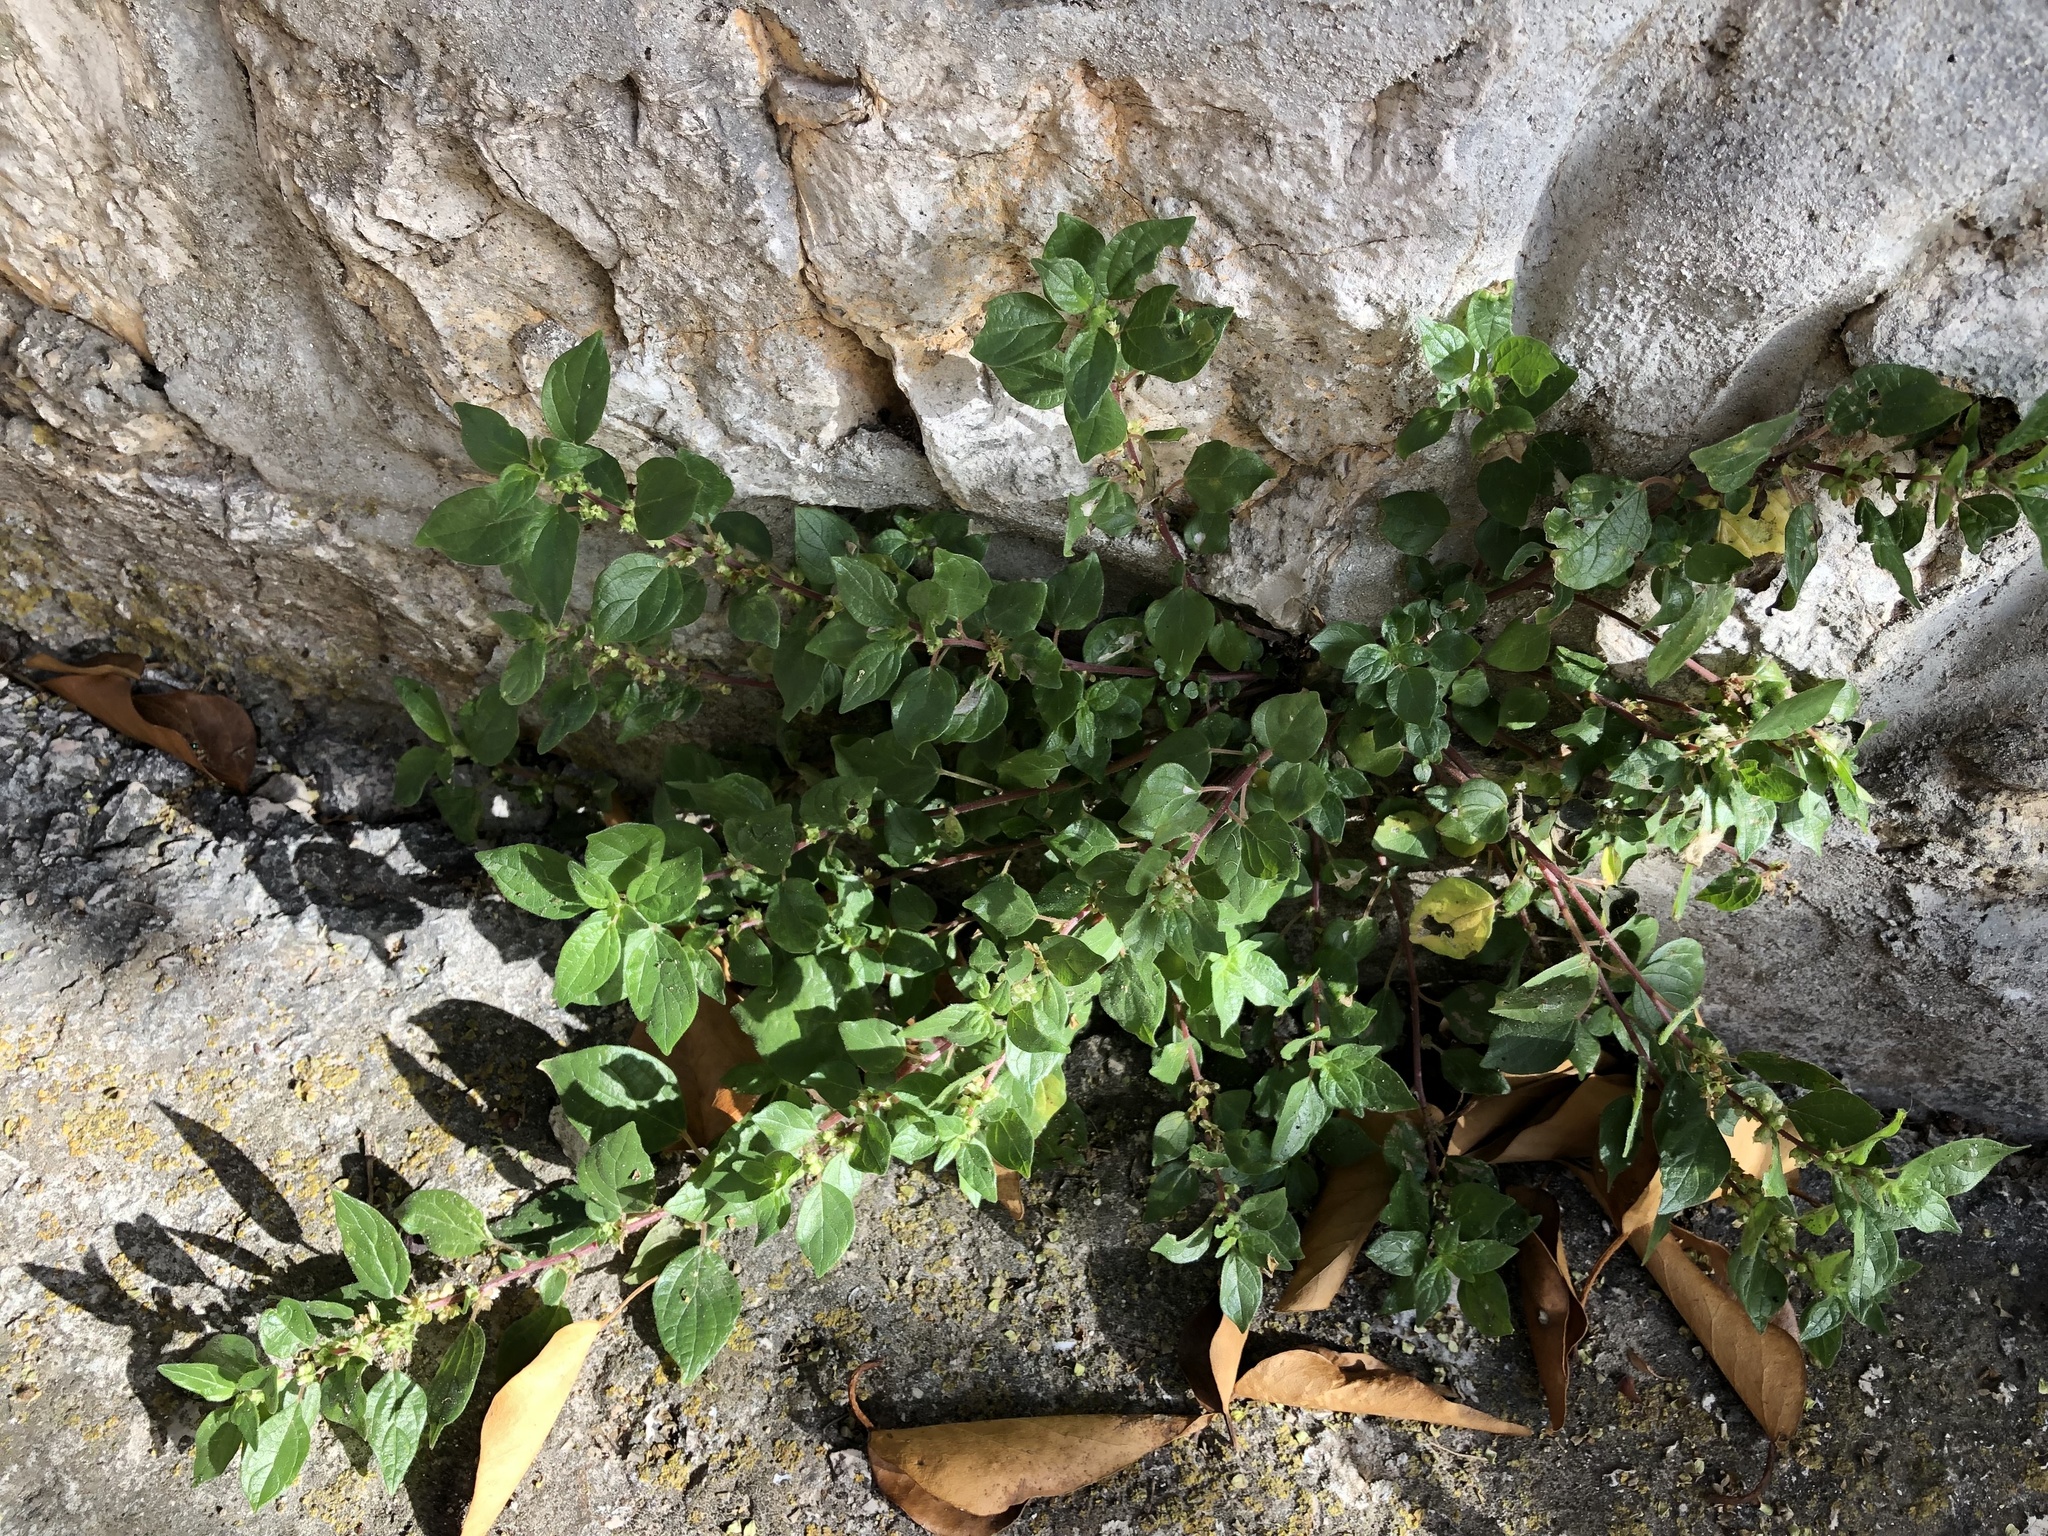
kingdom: Plantae
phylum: Tracheophyta
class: Magnoliopsida
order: Rosales
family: Urticaceae
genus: Parietaria
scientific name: Parietaria judaica
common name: Pellitory-of-the-wall
